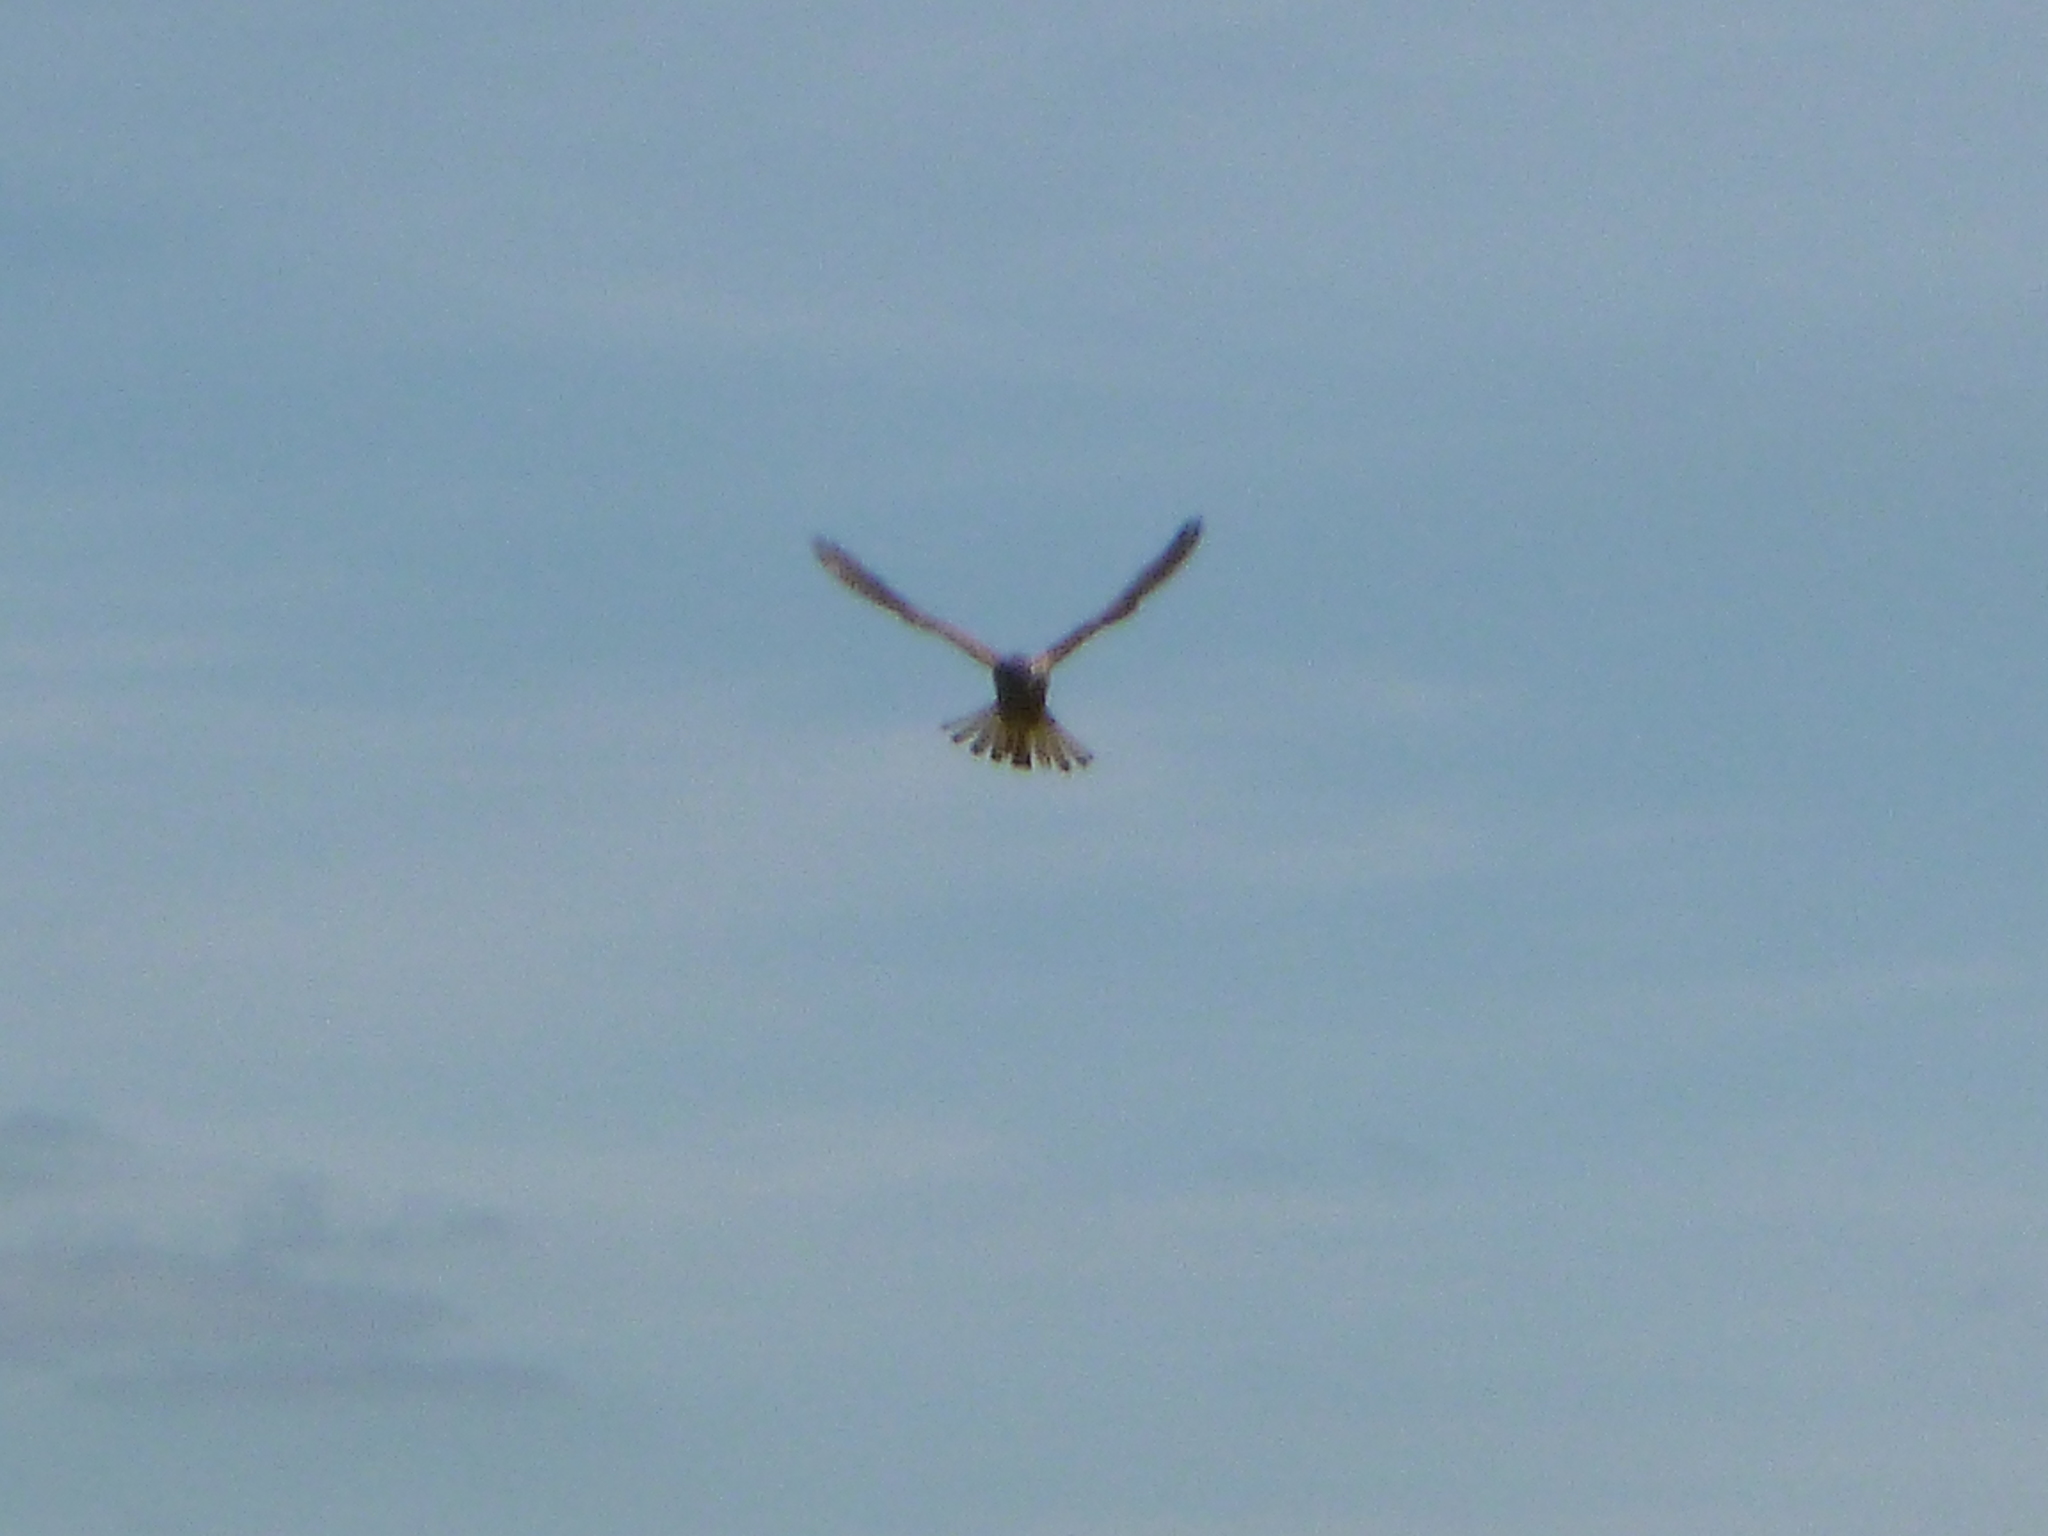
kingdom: Animalia
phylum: Chordata
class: Aves
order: Falconiformes
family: Falconidae
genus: Falco
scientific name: Falco tinnunculus
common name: Common kestrel
